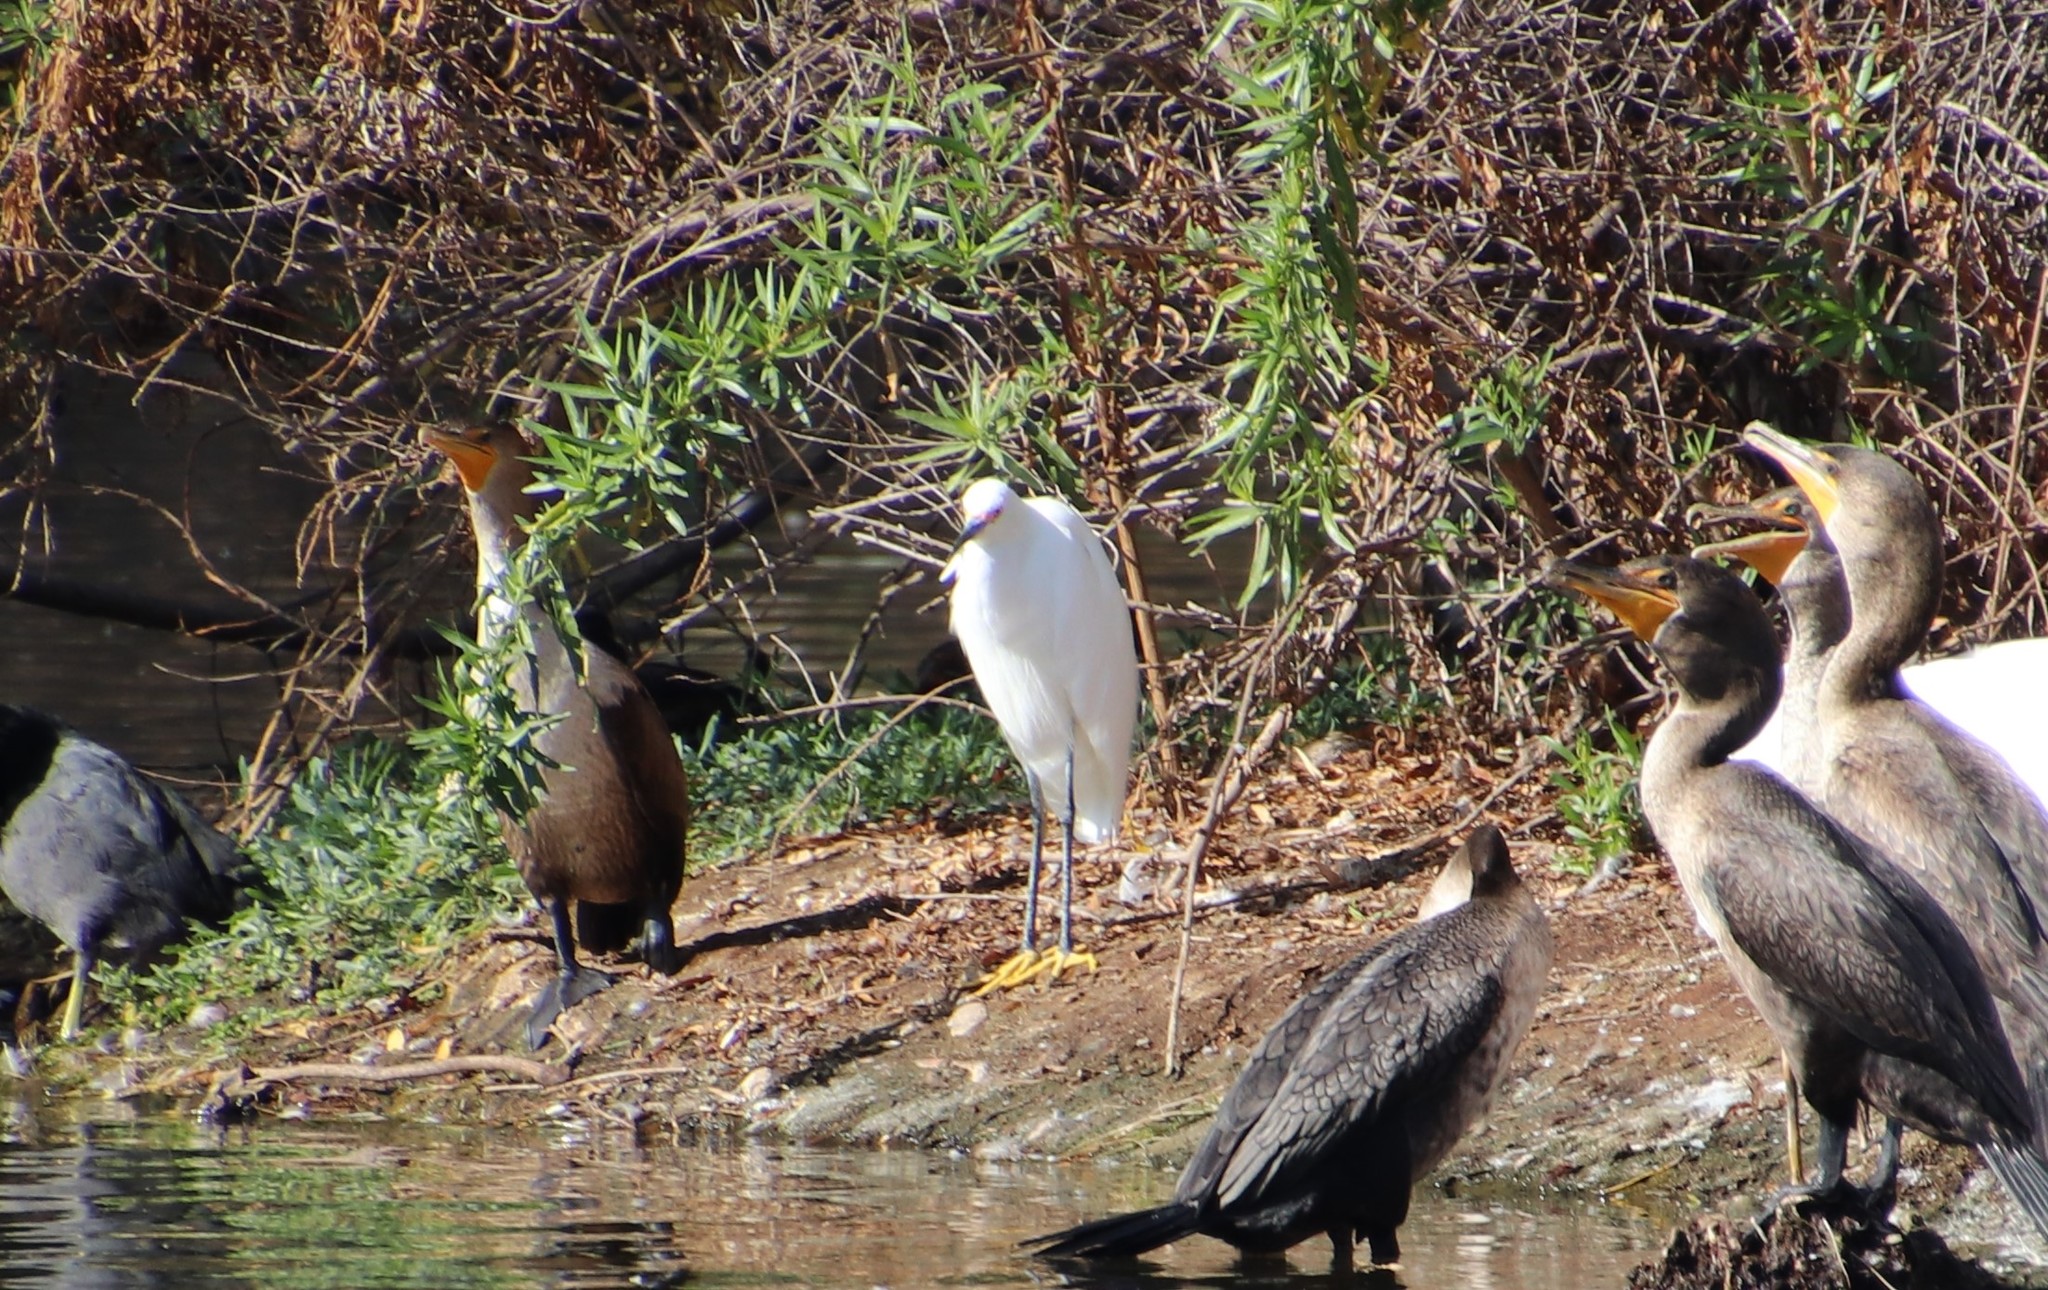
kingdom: Animalia
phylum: Chordata
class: Aves
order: Pelecaniformes
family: Ardeidae
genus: Egretta
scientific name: Egretta thula
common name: Snowy egret
